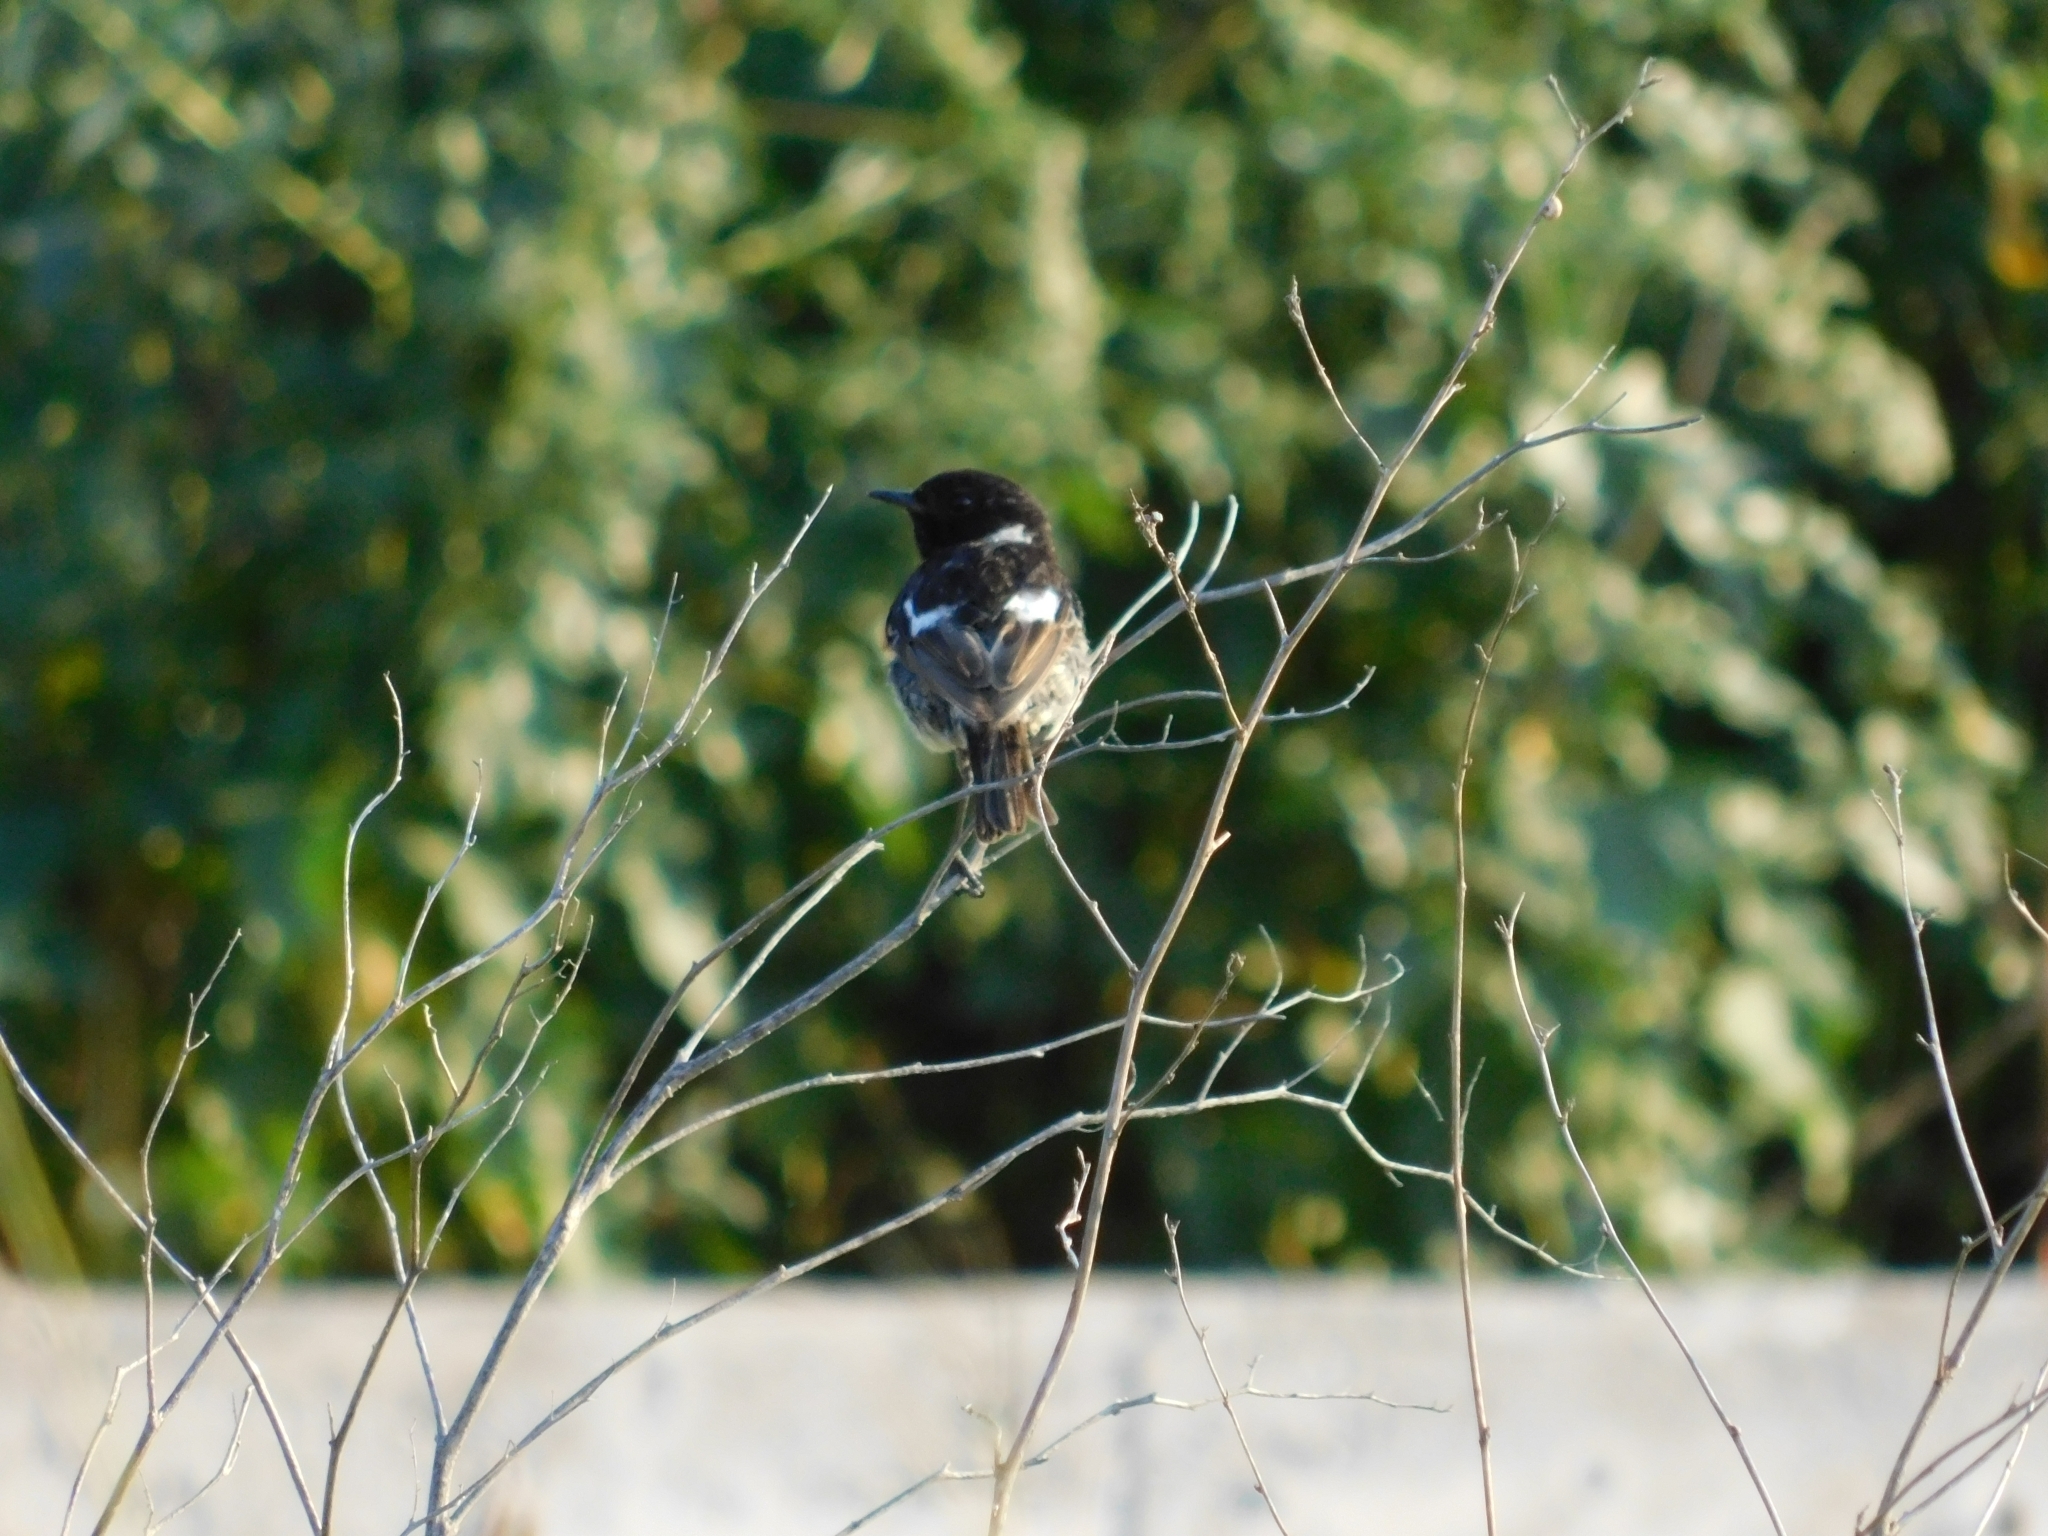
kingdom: Animalia
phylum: Chordata
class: Aves
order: Passeriformes
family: Muscicapidae
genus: Saxicola
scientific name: Saxicola rubicola
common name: European stonechat
